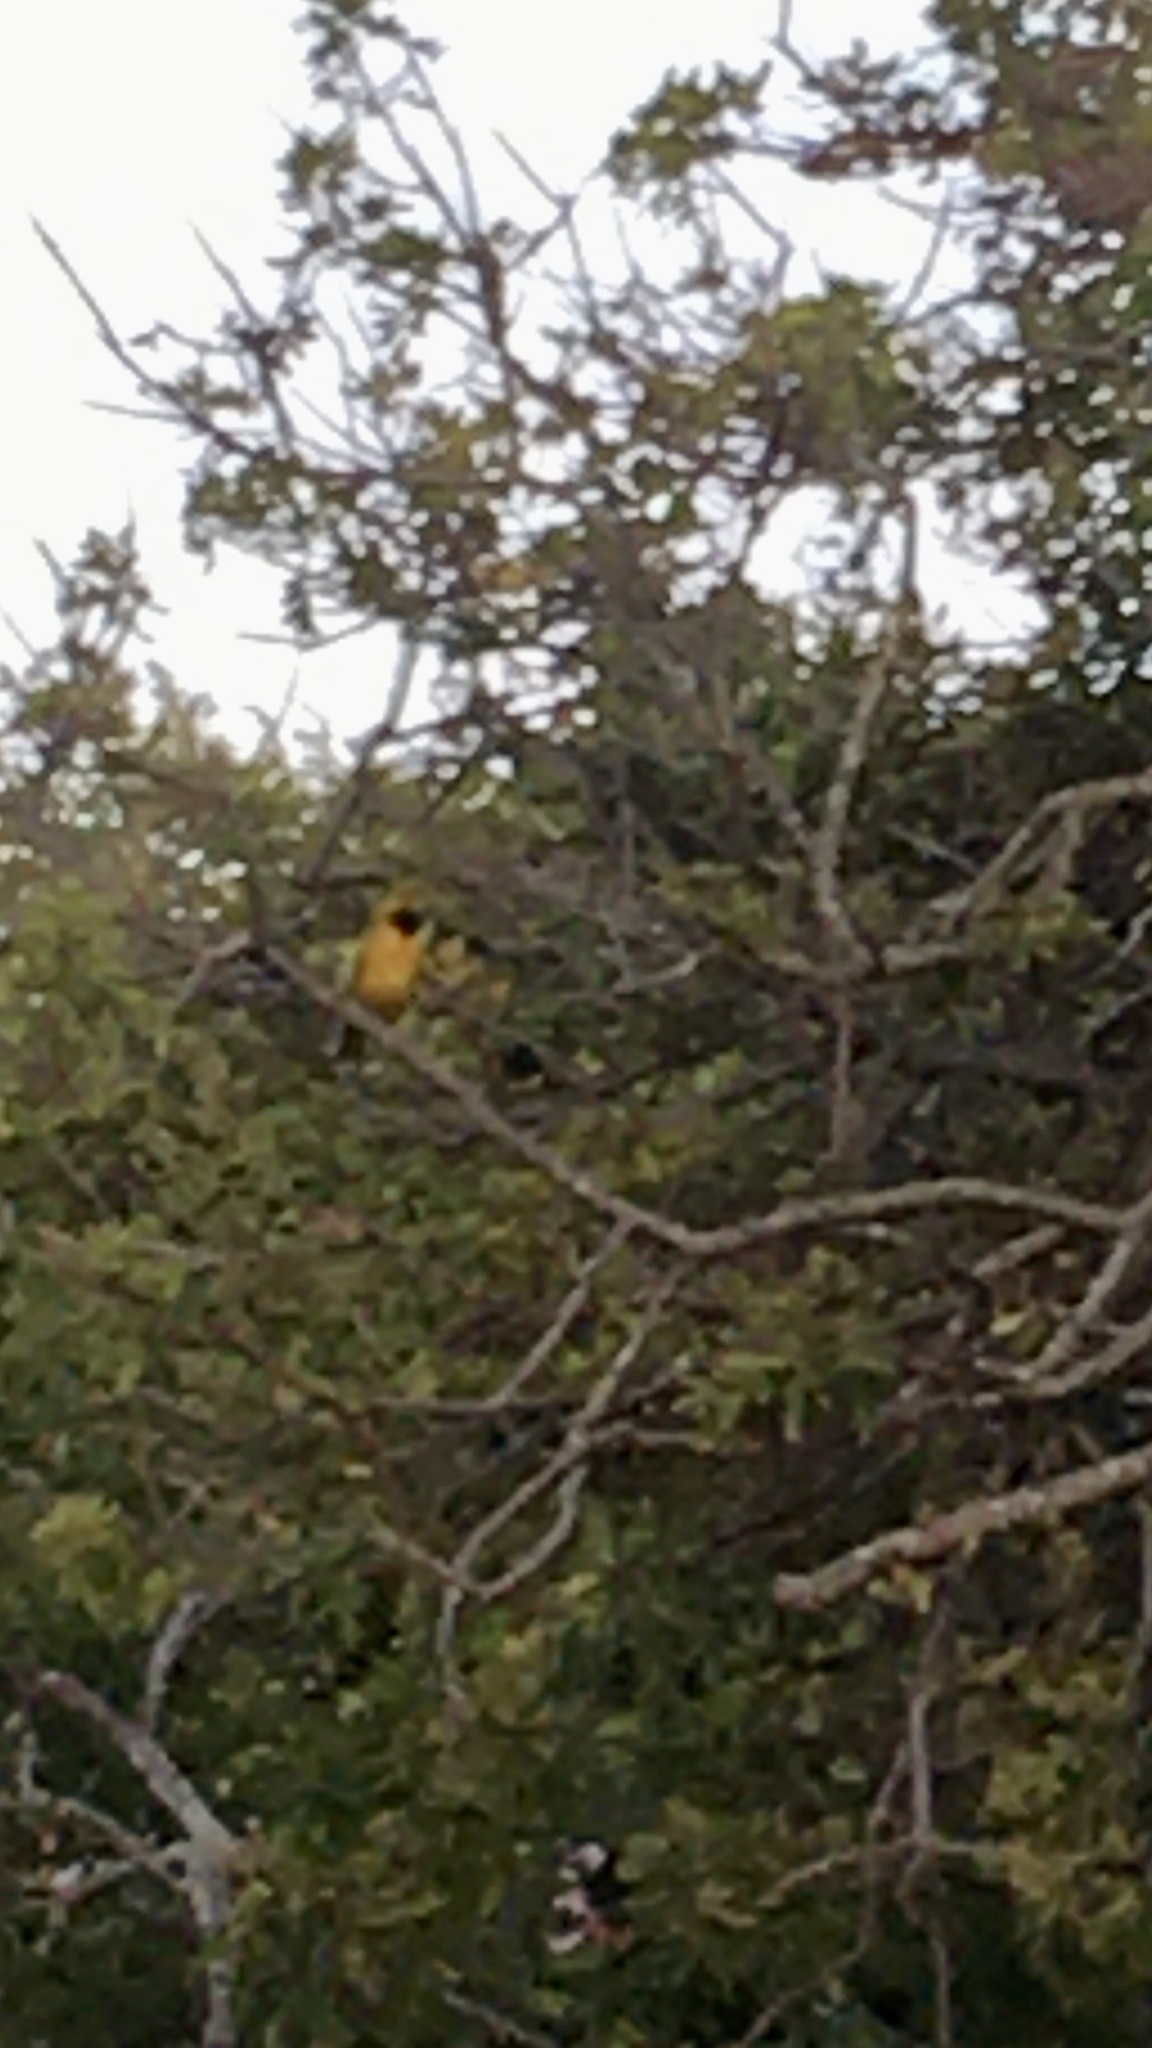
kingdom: Animalia
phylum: Chordata
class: Aves
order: Passeriformes
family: Ploceidae
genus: Ploceus
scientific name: Ploceus velatus
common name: Southern masked weaver
